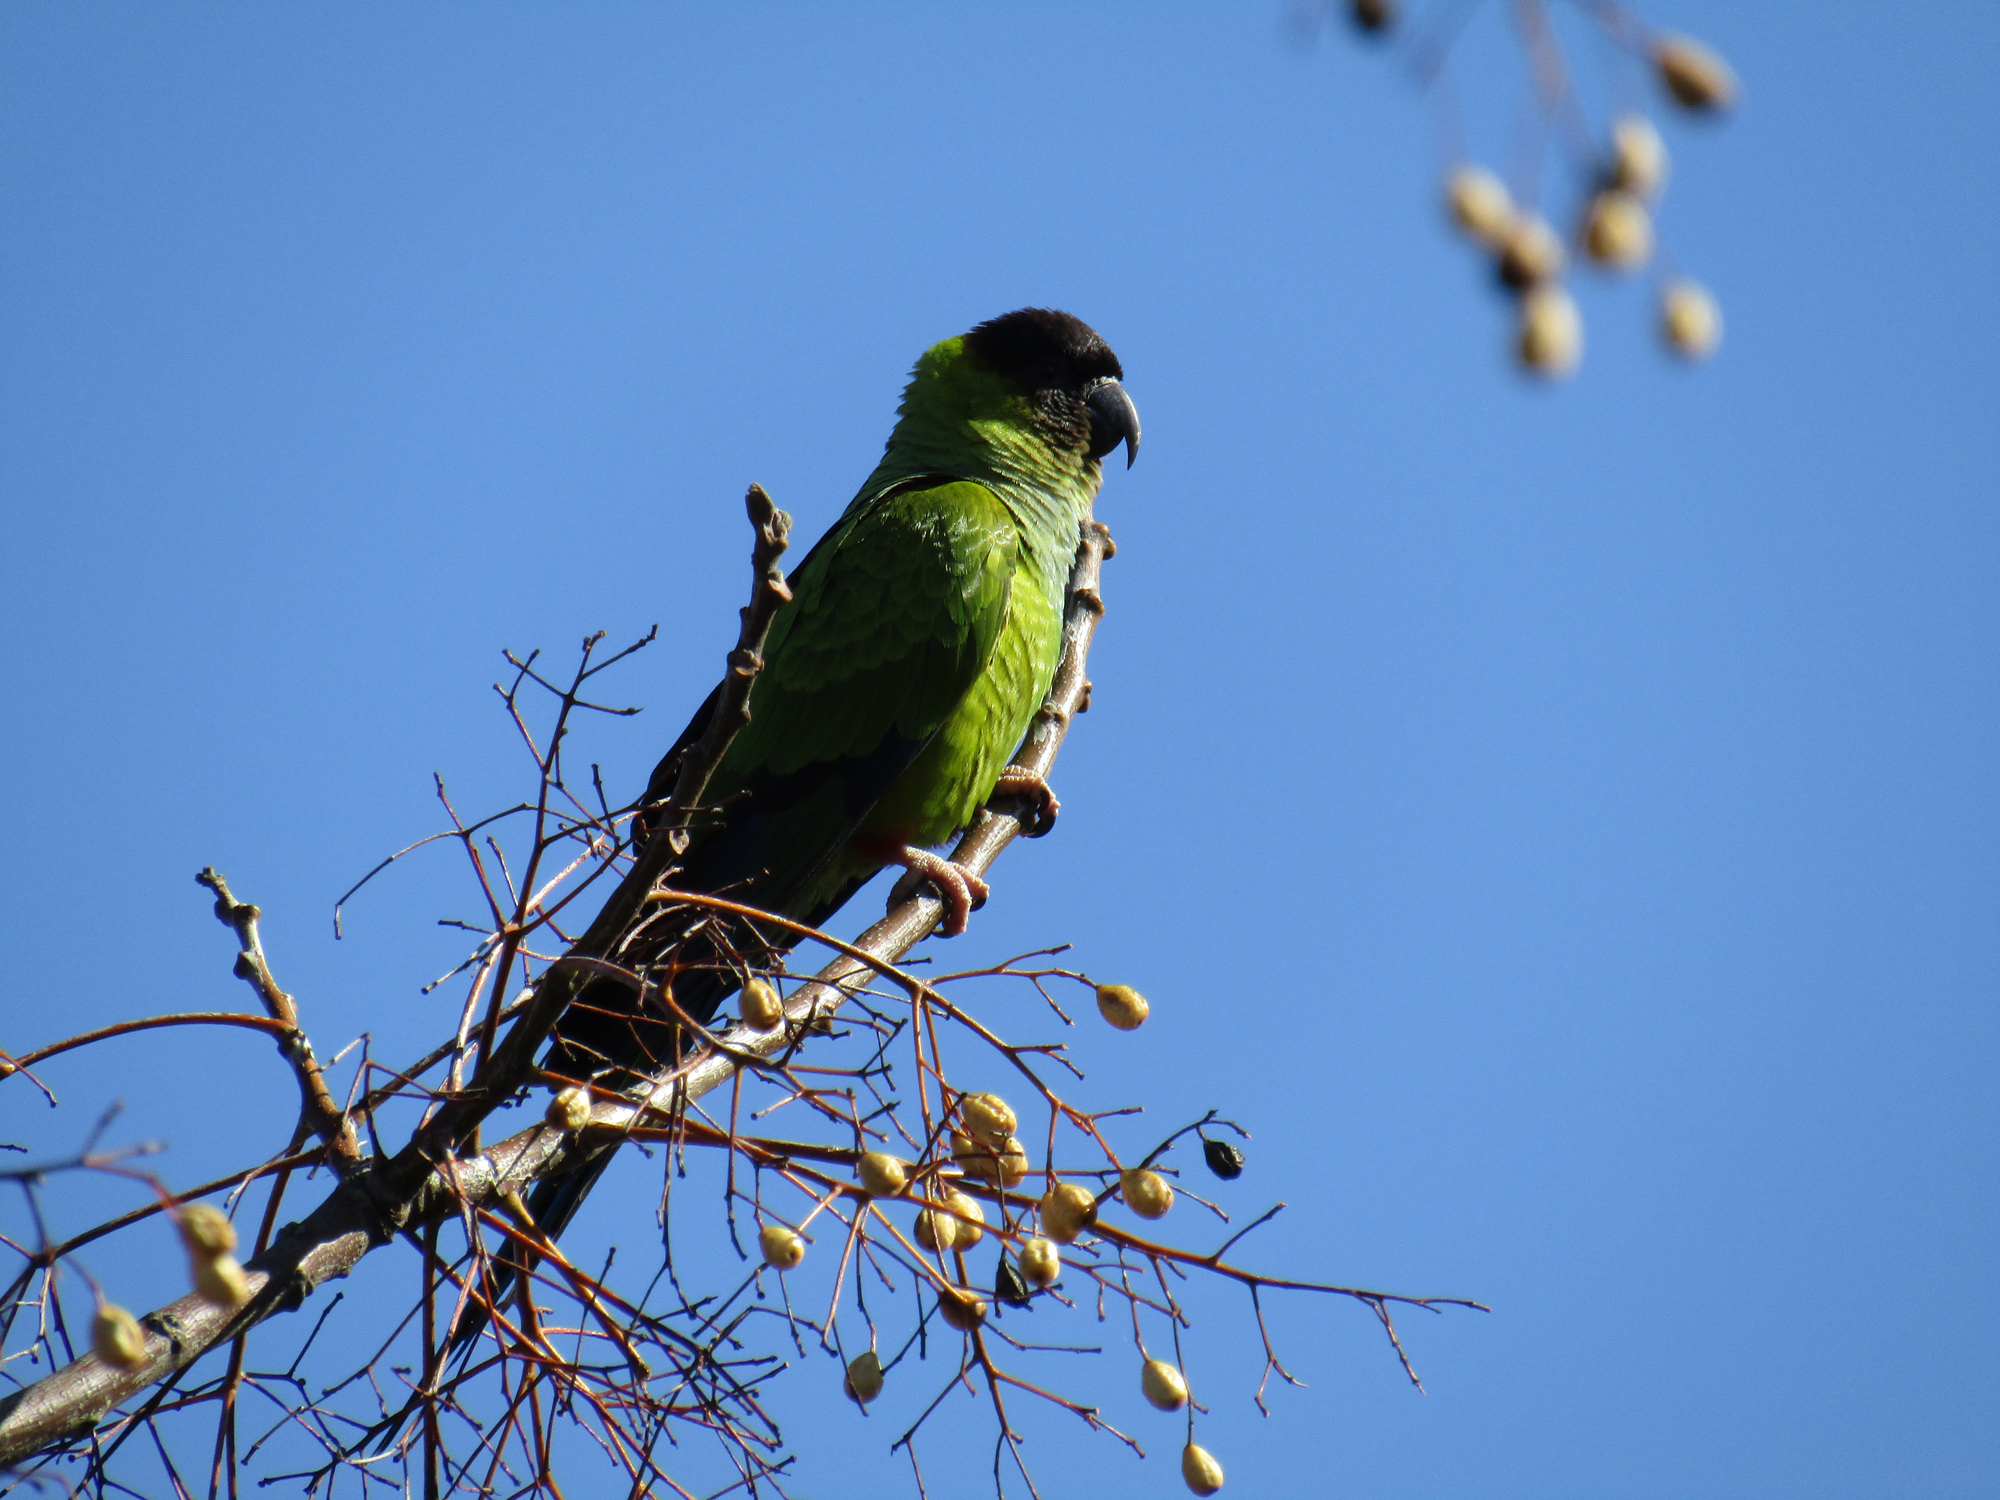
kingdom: Animalia
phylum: Chordata
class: Aves
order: Psittaciformes
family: Psittacidae
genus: Nandayus
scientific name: Nandayus nenday
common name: Nanday parakeet
